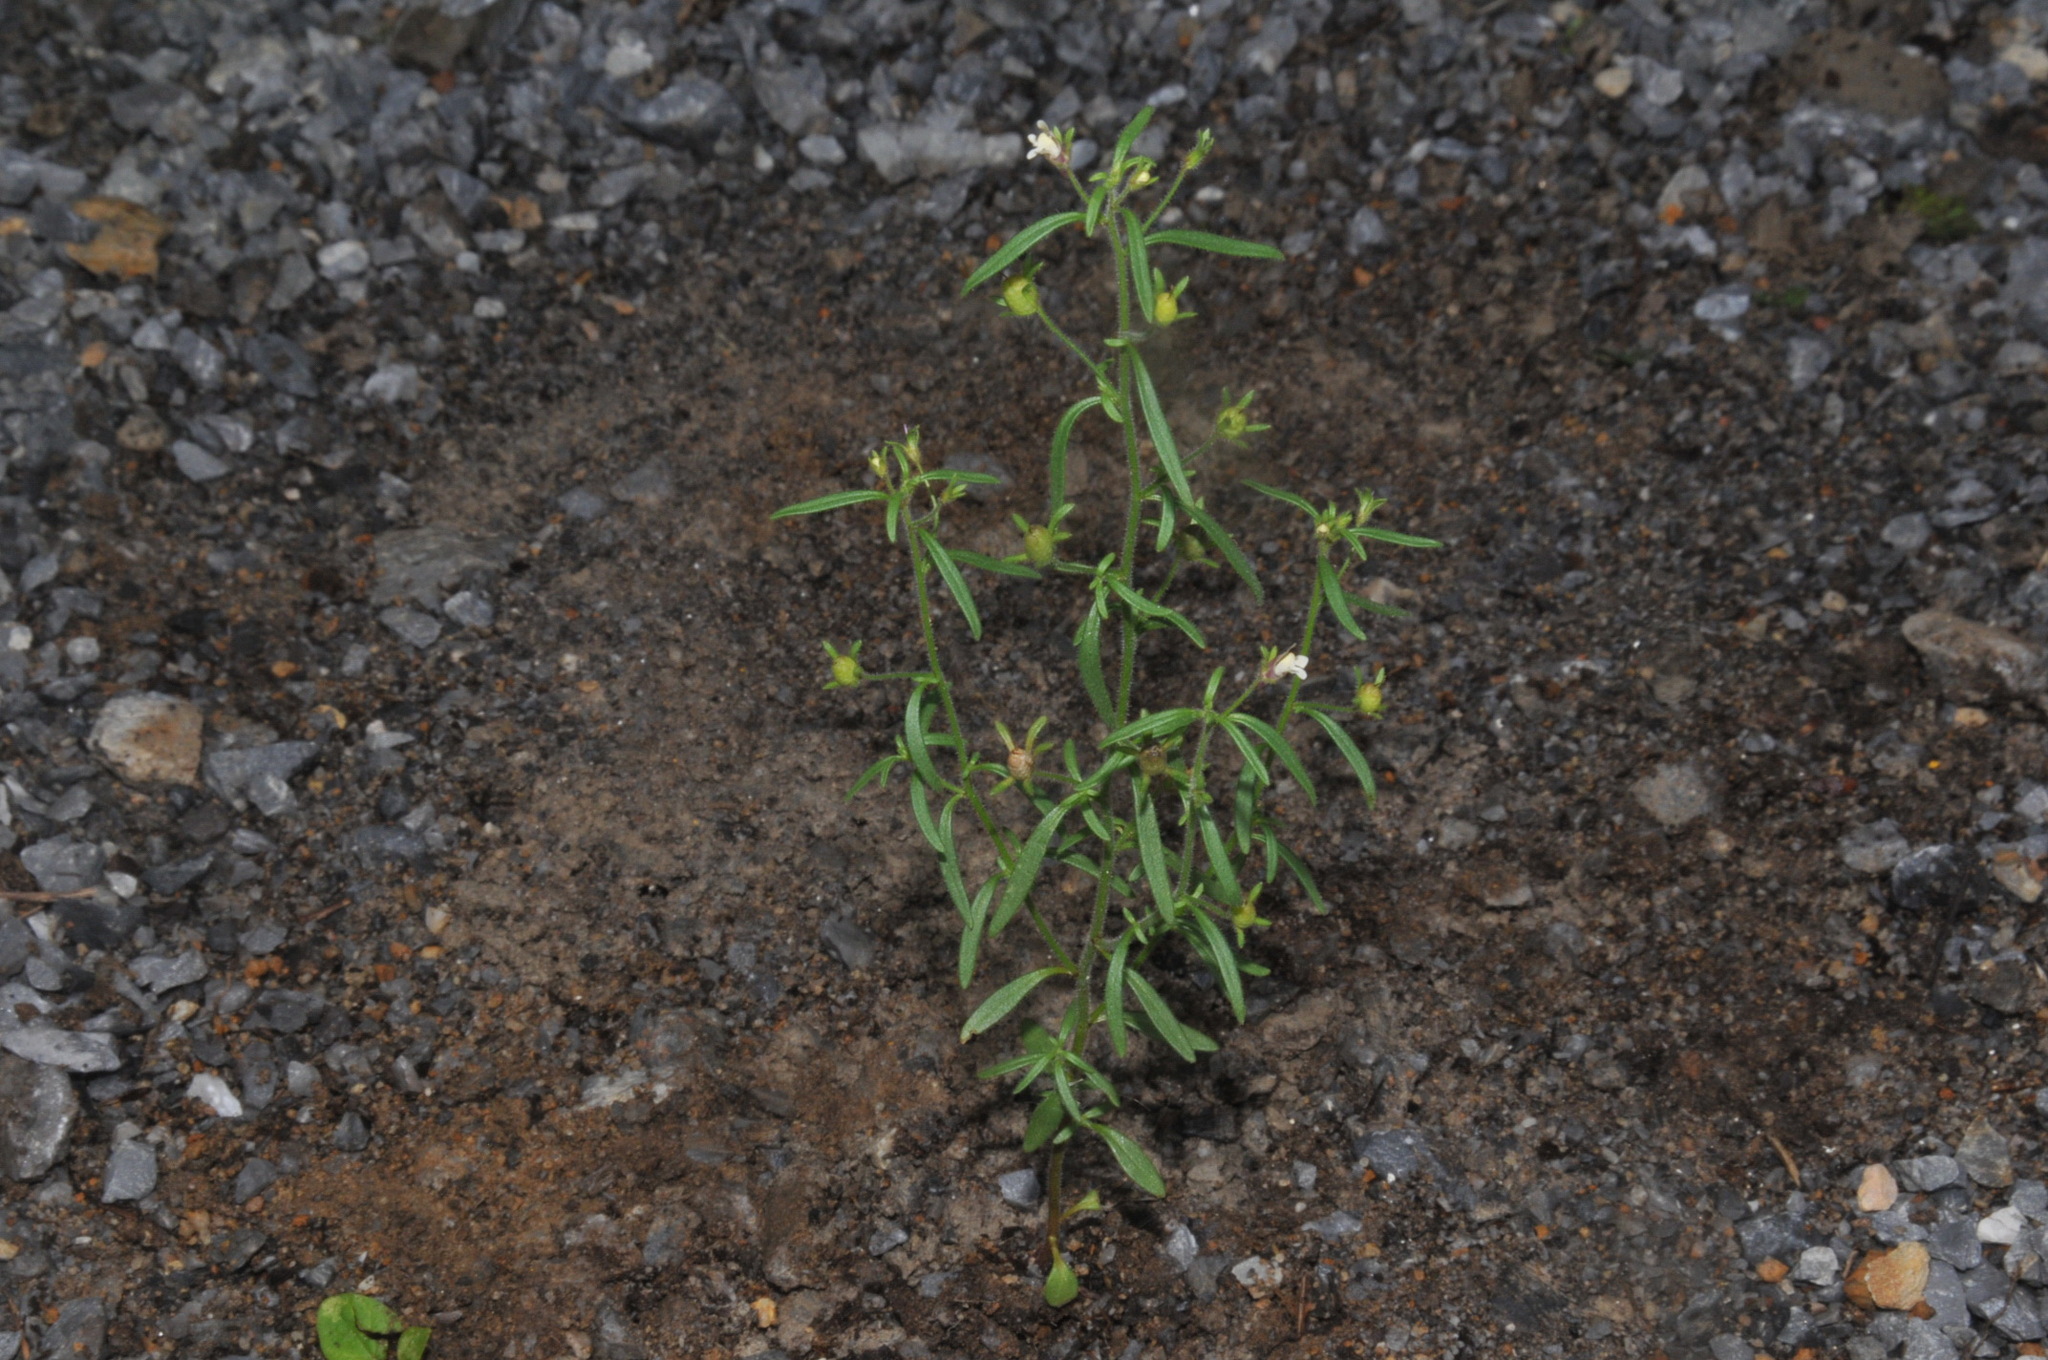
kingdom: Plantae
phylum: Tracheophyta
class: Magnoliopsida
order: Lamiales
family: Plantaginaceae
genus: Chaenorhinum
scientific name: Chaenorhinum minus
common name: Dwarf snapdragon
